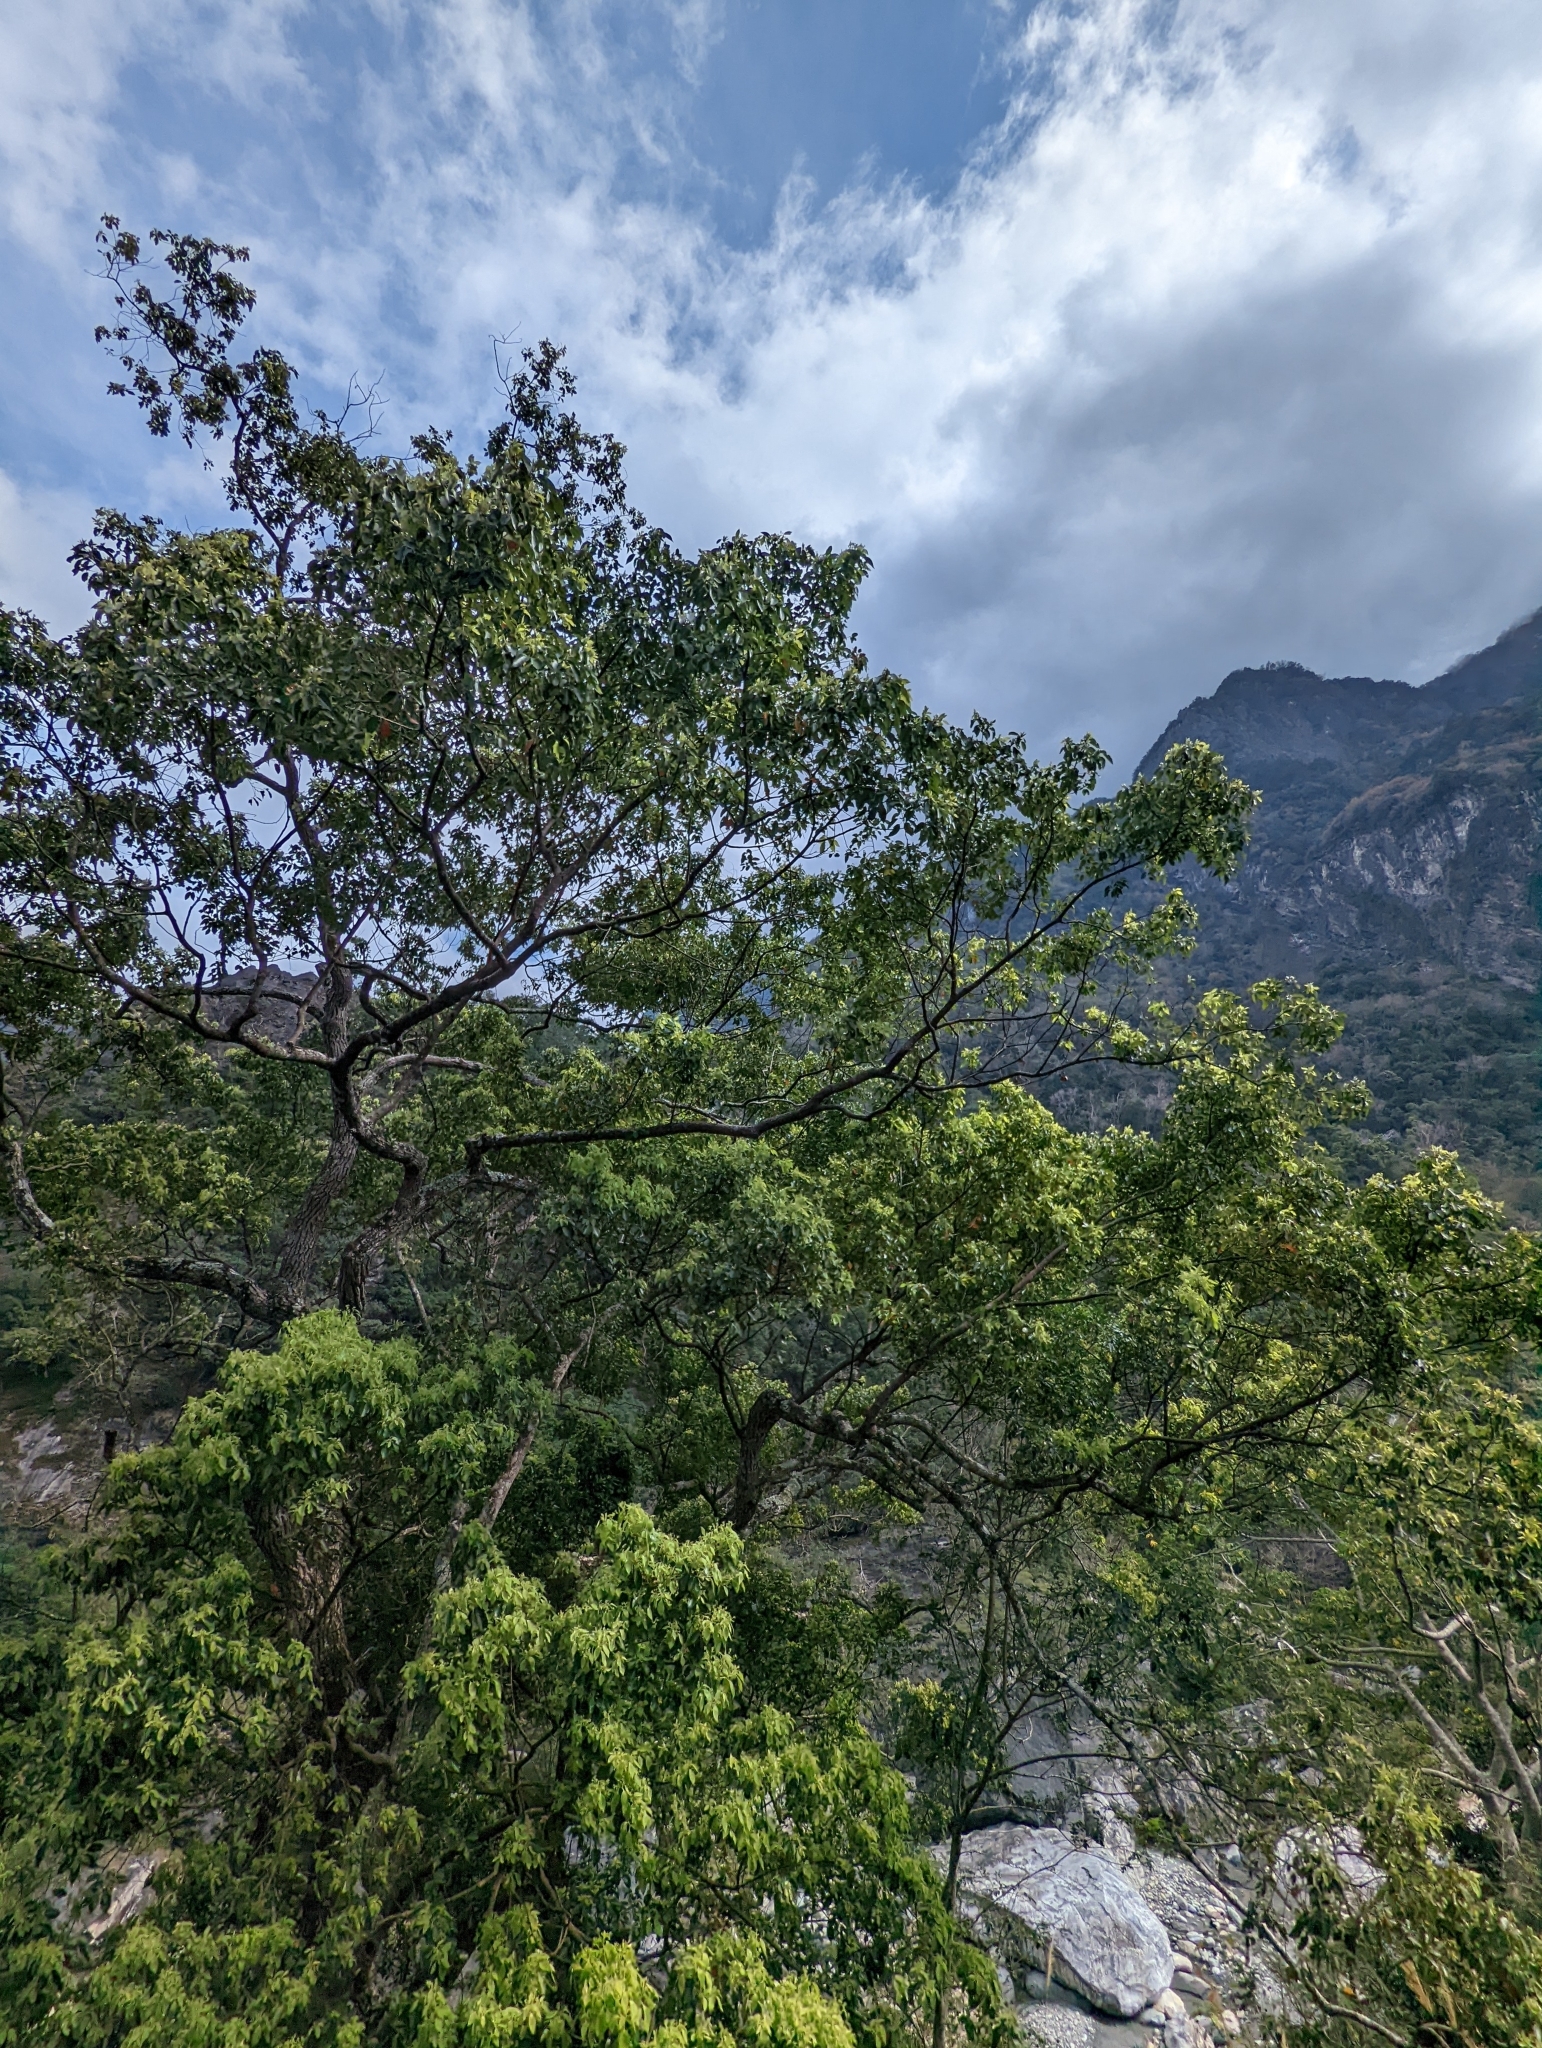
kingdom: Plantae
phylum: Tracheophyta
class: Magnoliopsida
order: Laurales
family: Lauraceae
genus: Cinnamomum
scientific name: Cinnamomum camphora
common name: Camphortree
